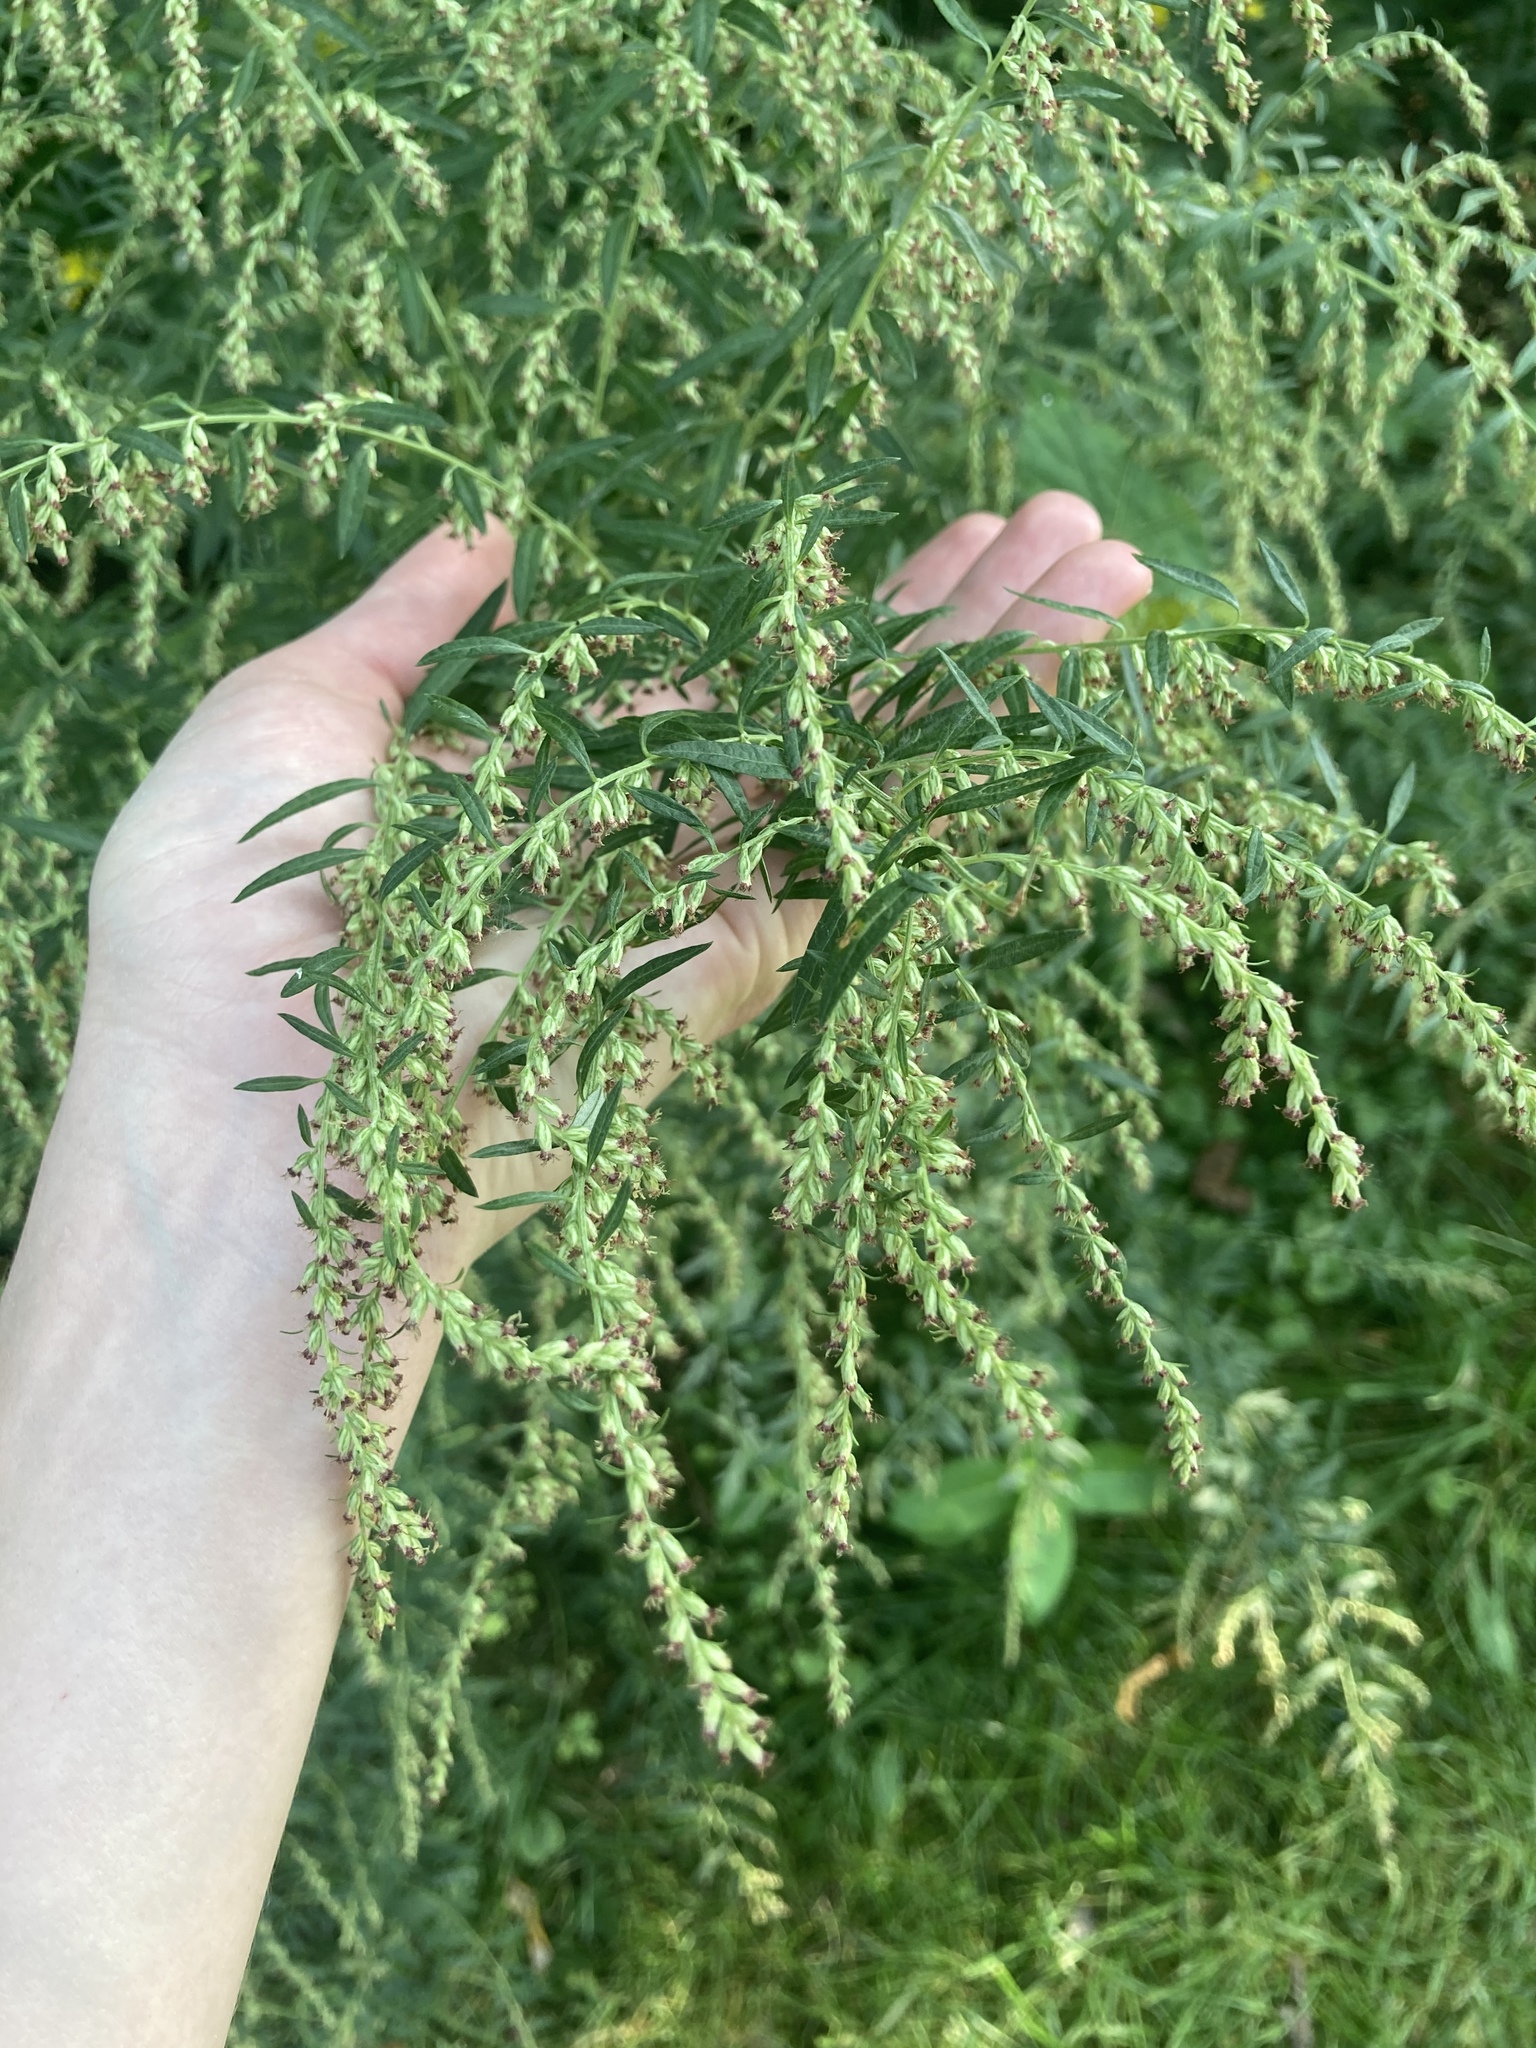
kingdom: Plantae
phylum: Tracheophyta
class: Magnoliopsida
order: Asterales
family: Asteraceae
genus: Artemisia
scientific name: Artemisia vulgaris
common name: Mugwort
